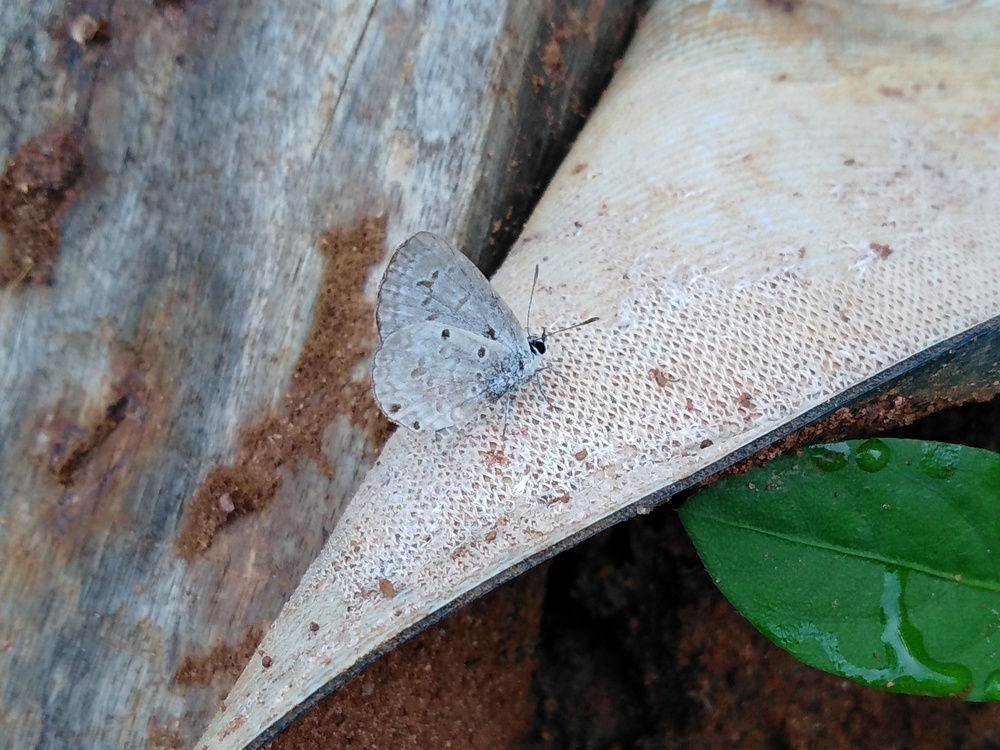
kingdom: Animalia
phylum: Arthropoda
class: Insecta
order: Lepidoptera
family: Lycaenidae
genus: Chilades
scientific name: Chilades laius
